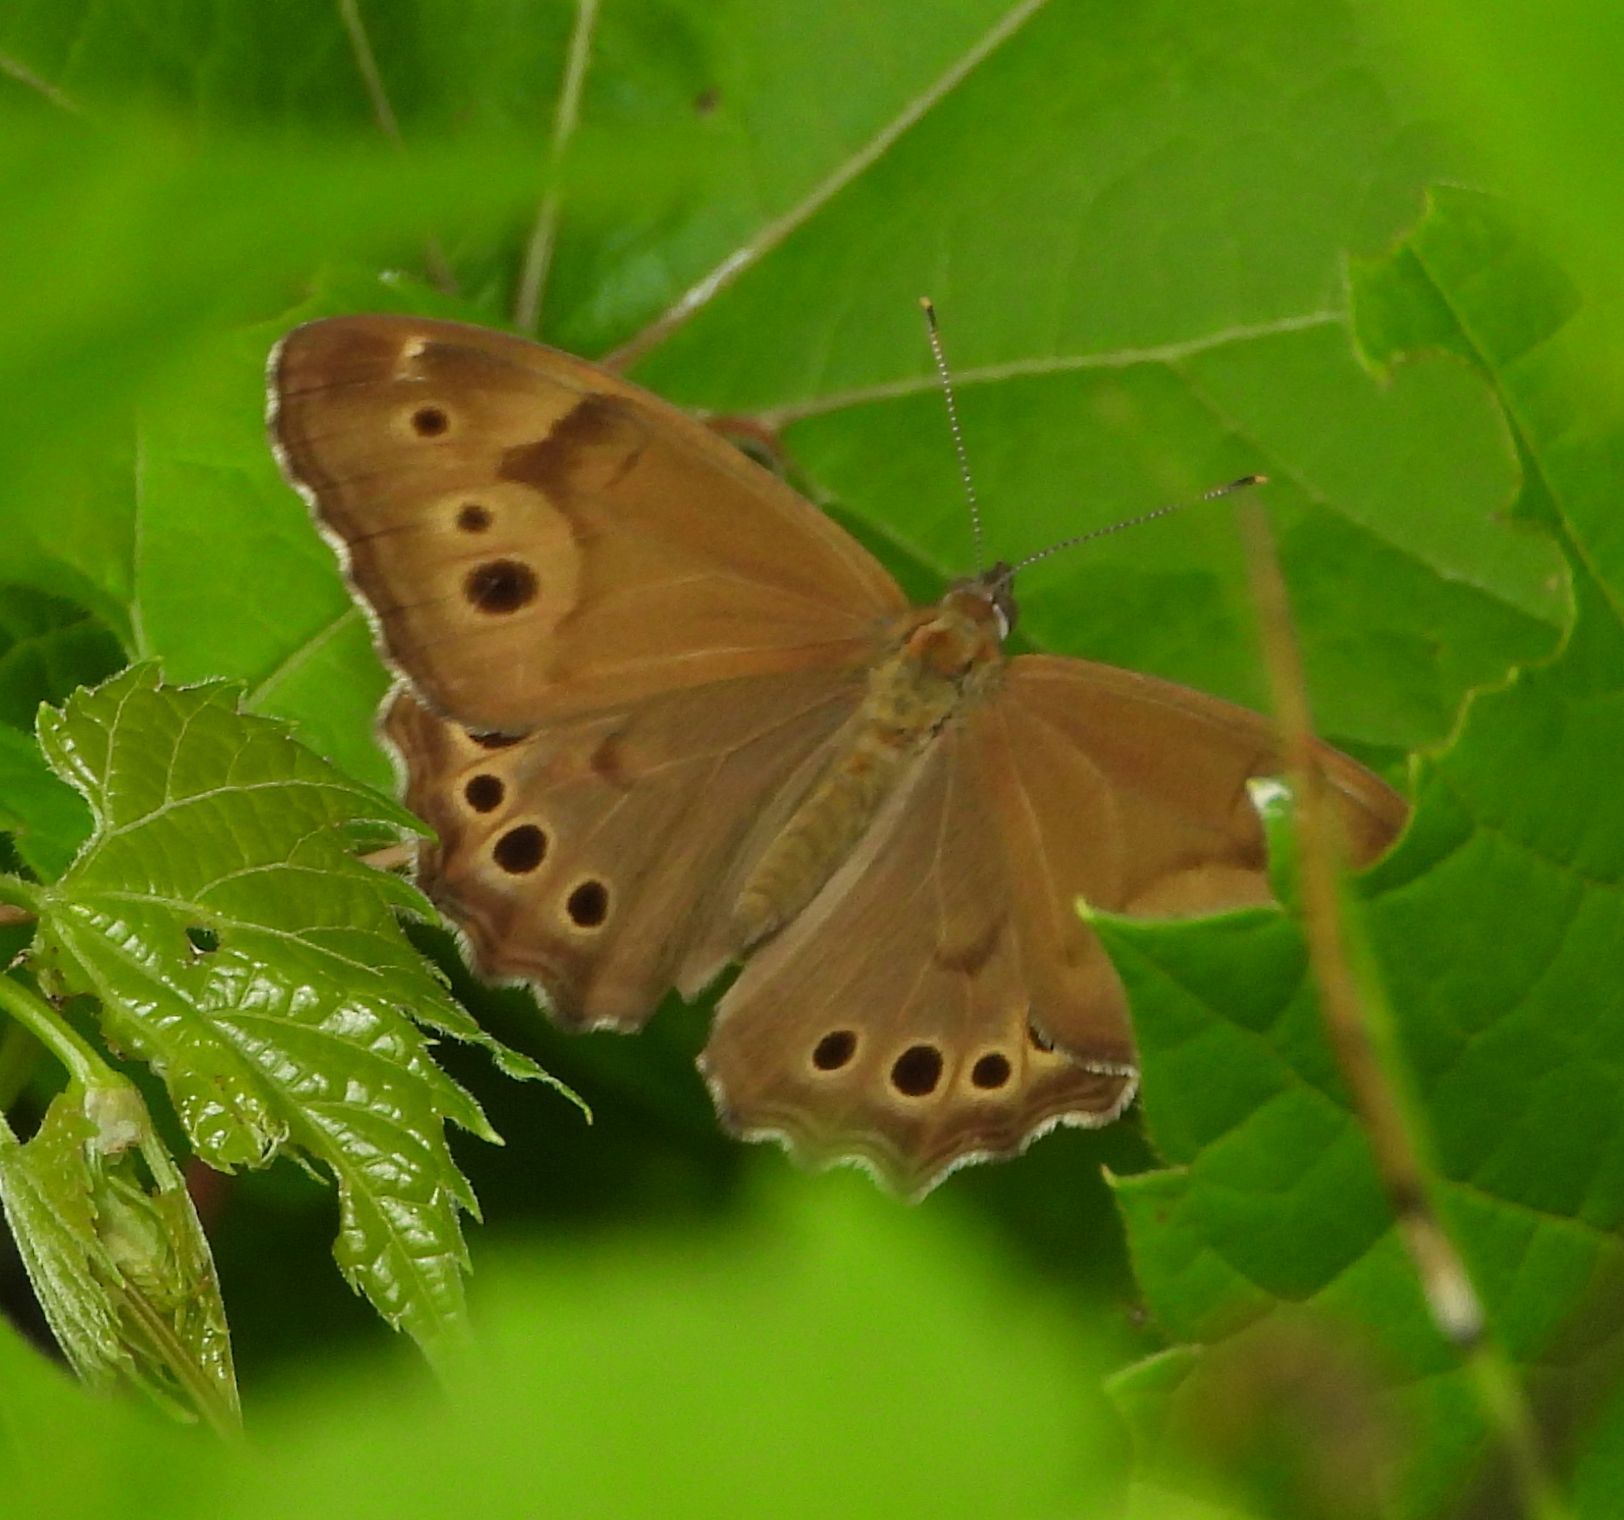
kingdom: Animalia
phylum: Arthropoda
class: Insecta
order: Lepidoptera
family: Nymphalidae
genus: Lethe
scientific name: Lethe anthedon
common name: Northern pearly-eye
